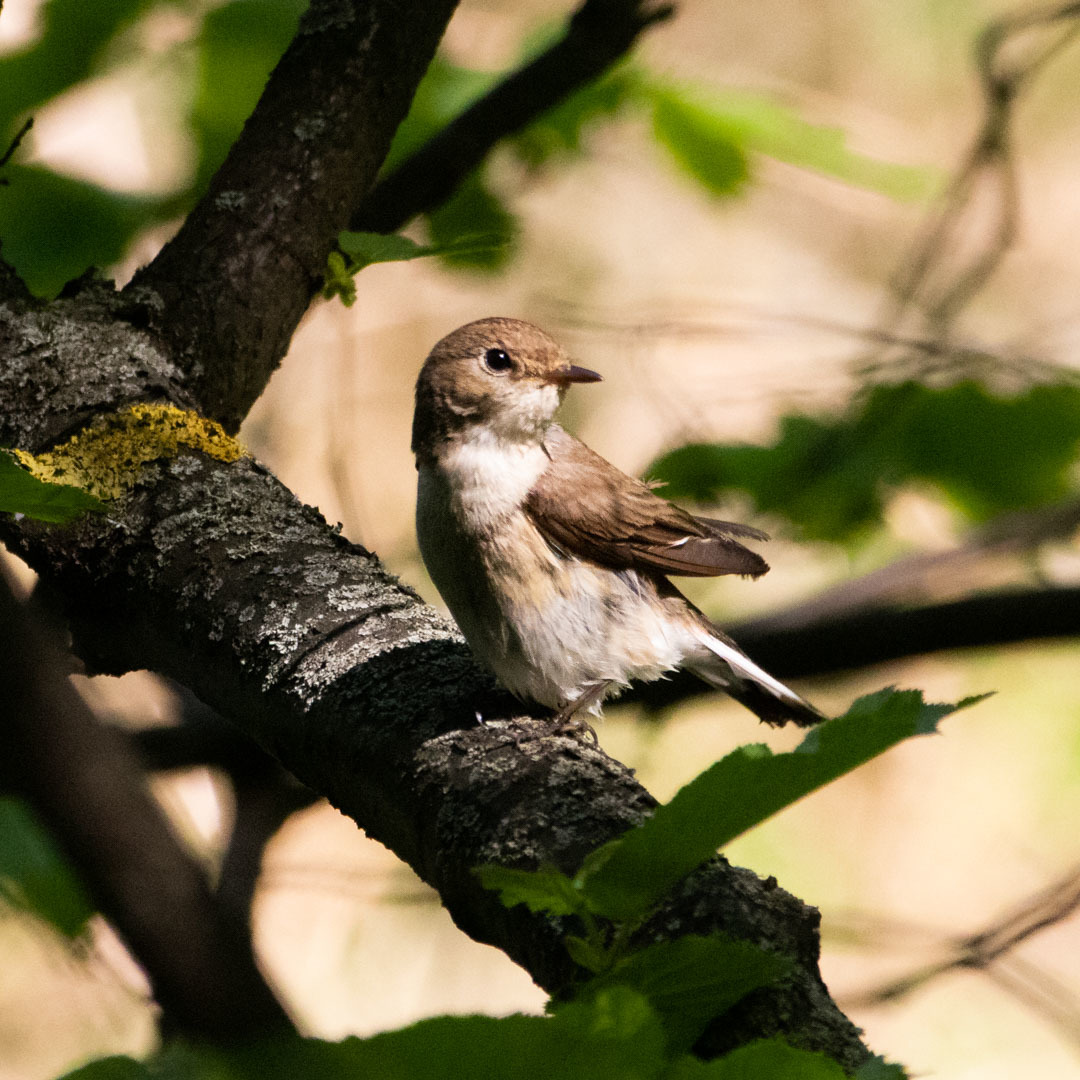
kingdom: Animalia
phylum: Chordata
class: Aves
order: Passeriformes
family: Muscicapidae
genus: Ficedula
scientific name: Ficedula parva
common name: Red-breasted flycatcher
